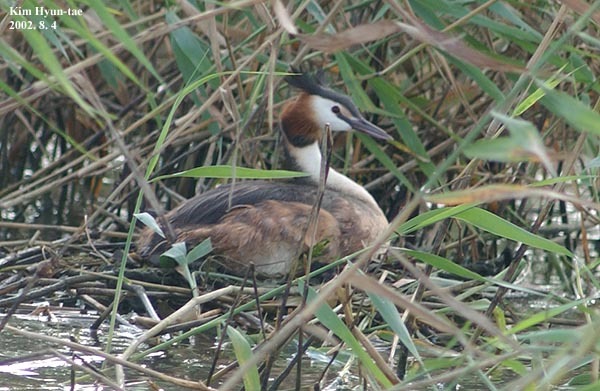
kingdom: Animalia
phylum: Chordata
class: Aves
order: Podicipediformes
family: Podicipedidae
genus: Podiceps
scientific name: Podiceps cristatus
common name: Great crested grebe
